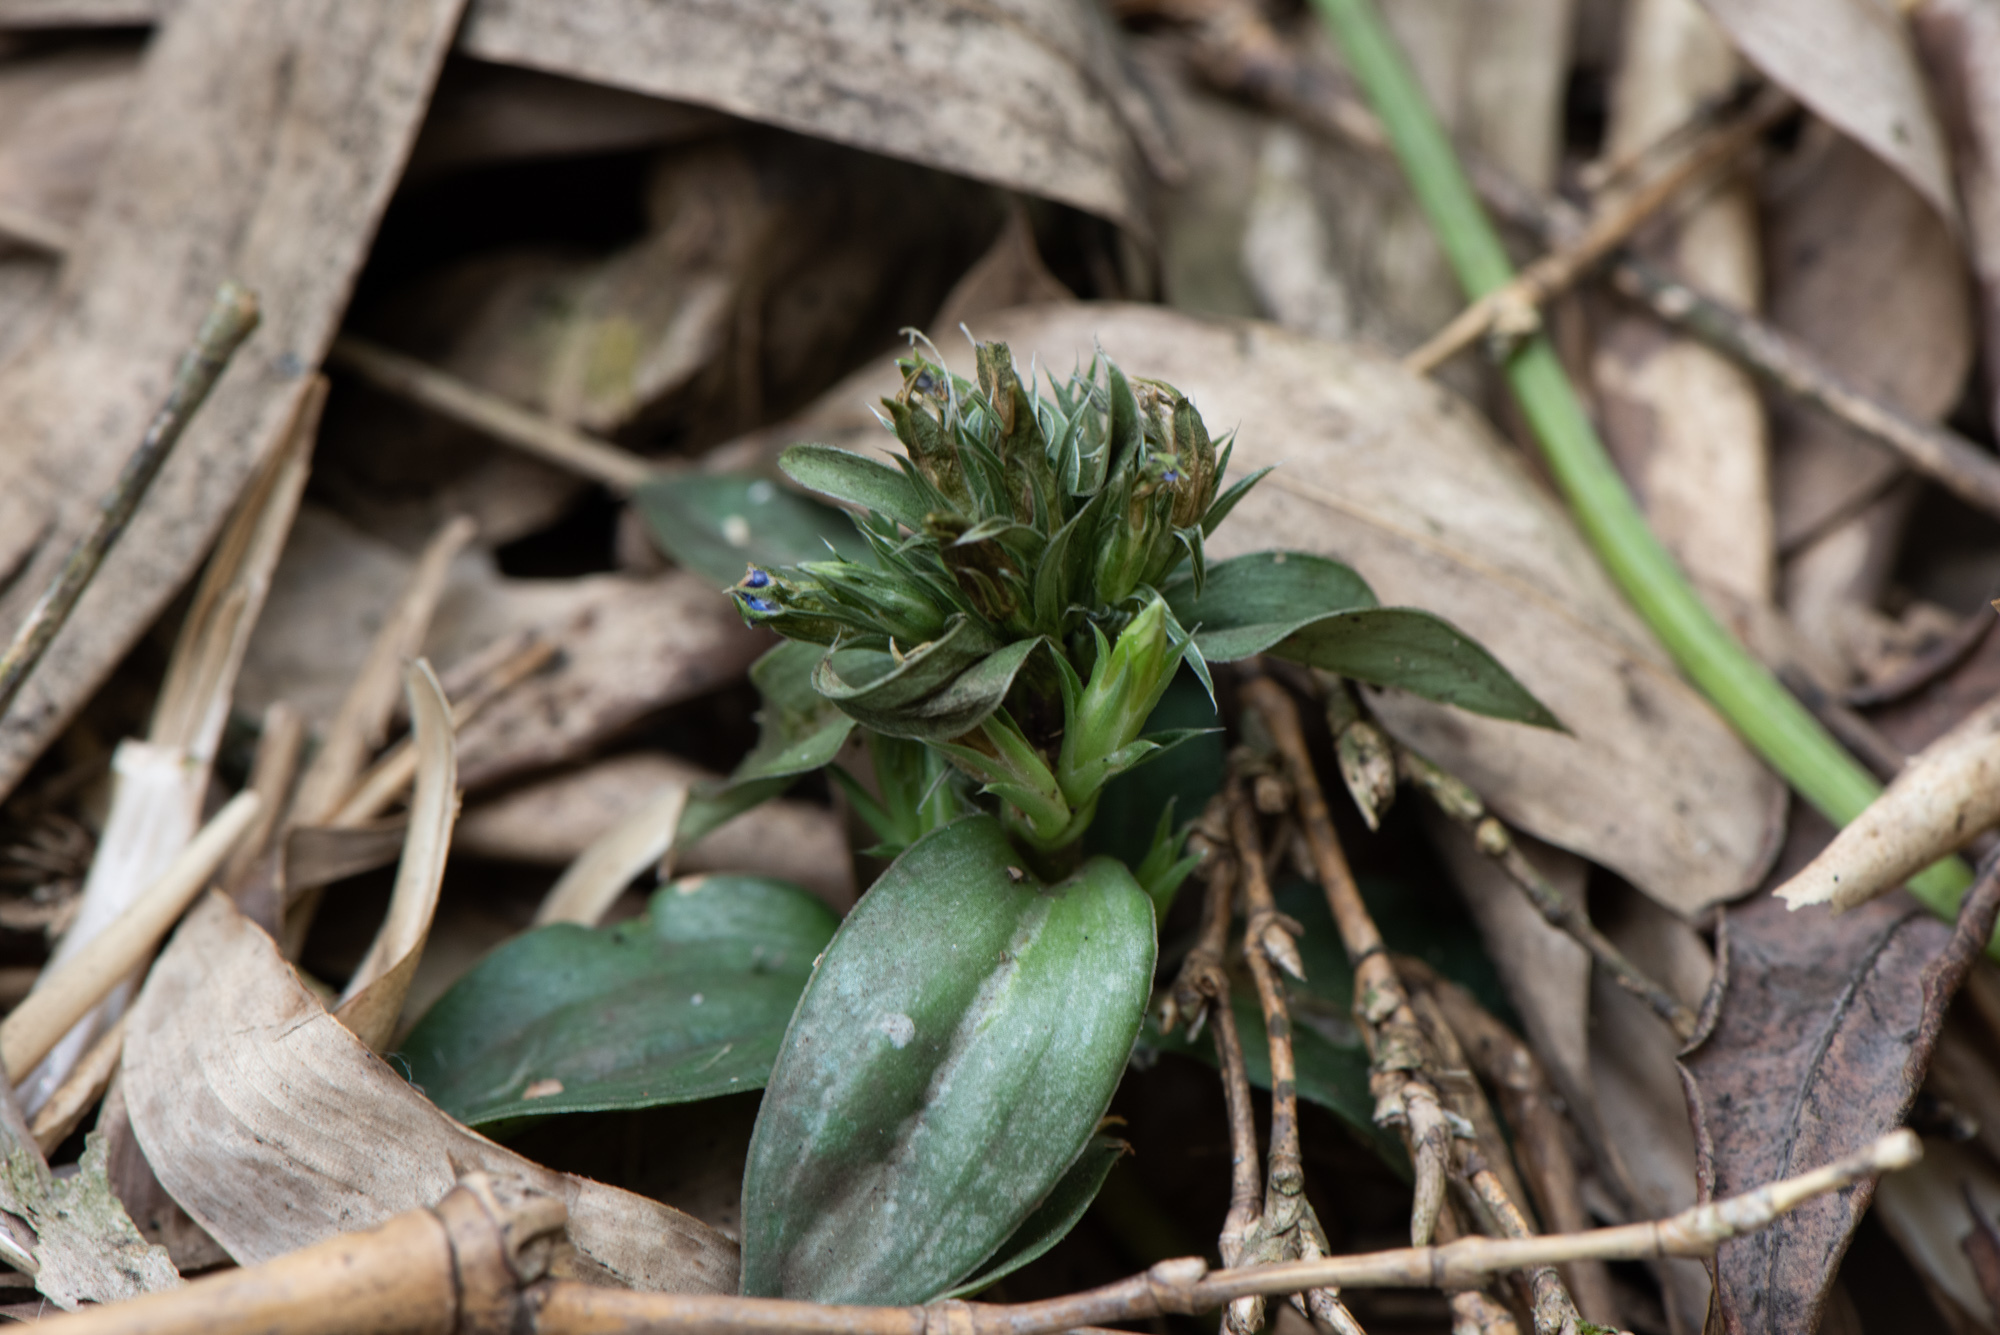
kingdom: Plantae
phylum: Tracheophyta
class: Magnoliopsida
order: Gentianales
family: Gentianaceae
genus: Gentiana
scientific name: Gentiana bambuseti
